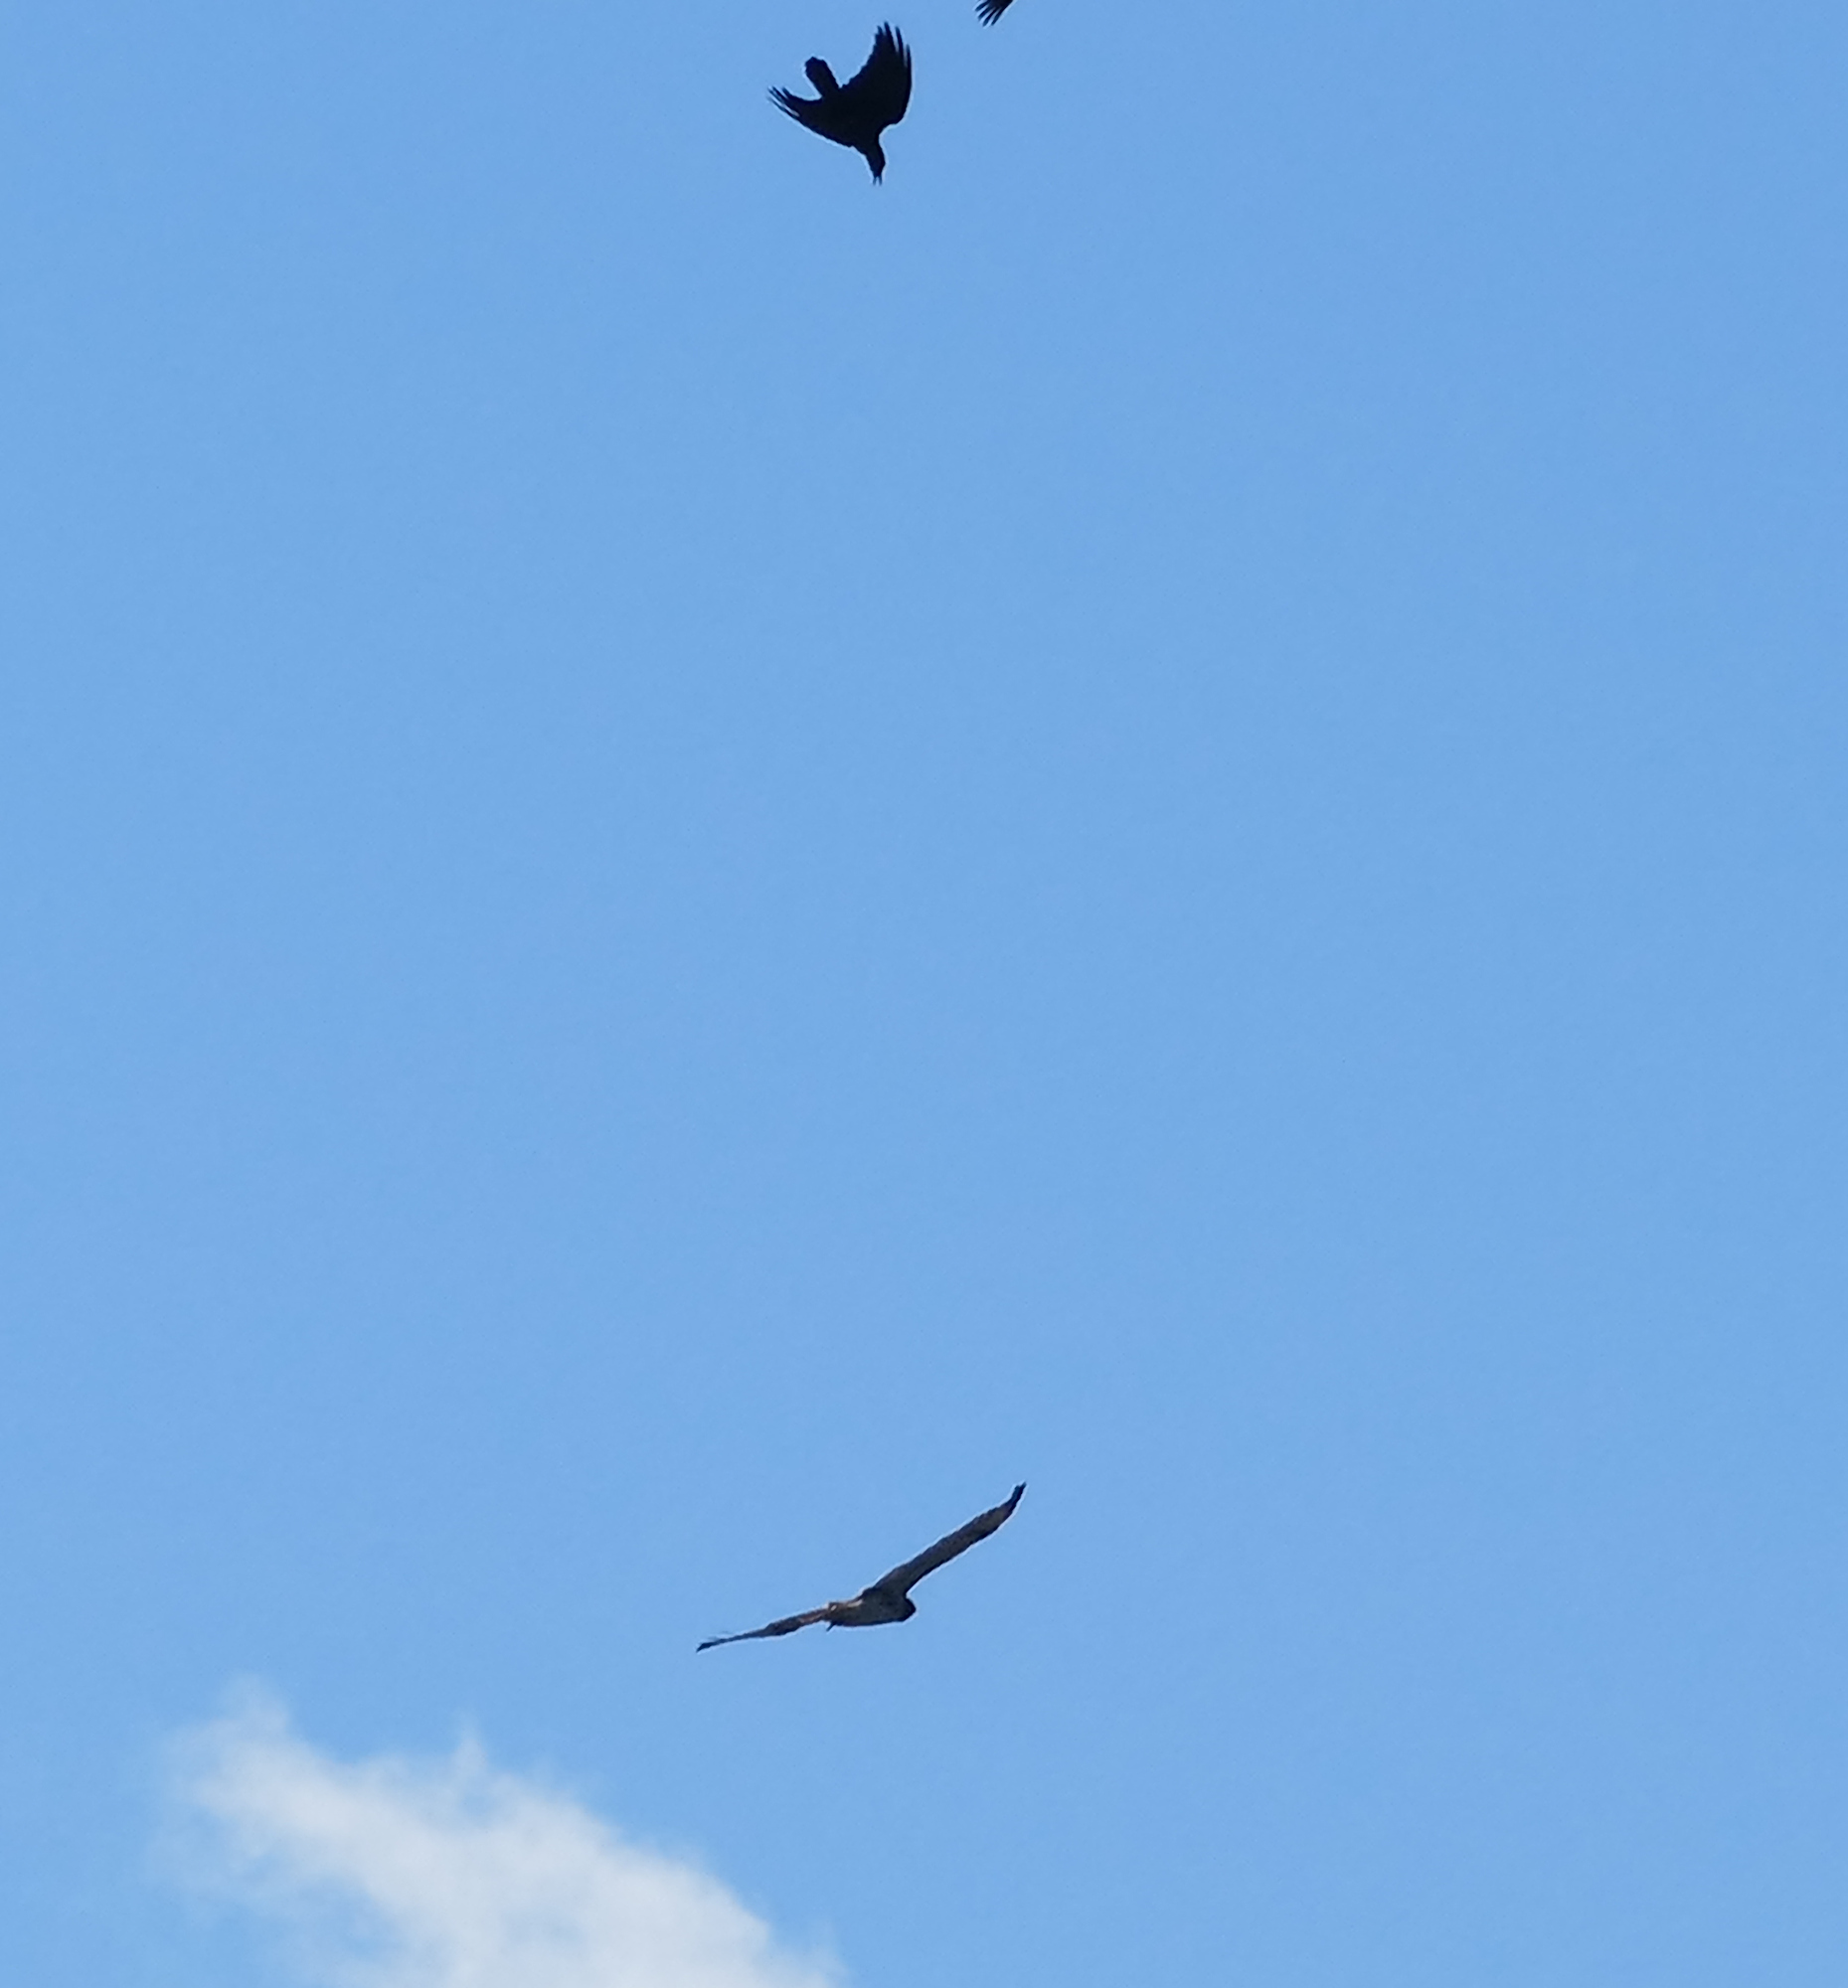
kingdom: Animalia
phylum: Chordata
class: Aves
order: Passeriformes
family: Corvidae
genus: Corvus
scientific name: Corvus brachyrhynchos
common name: American crow
